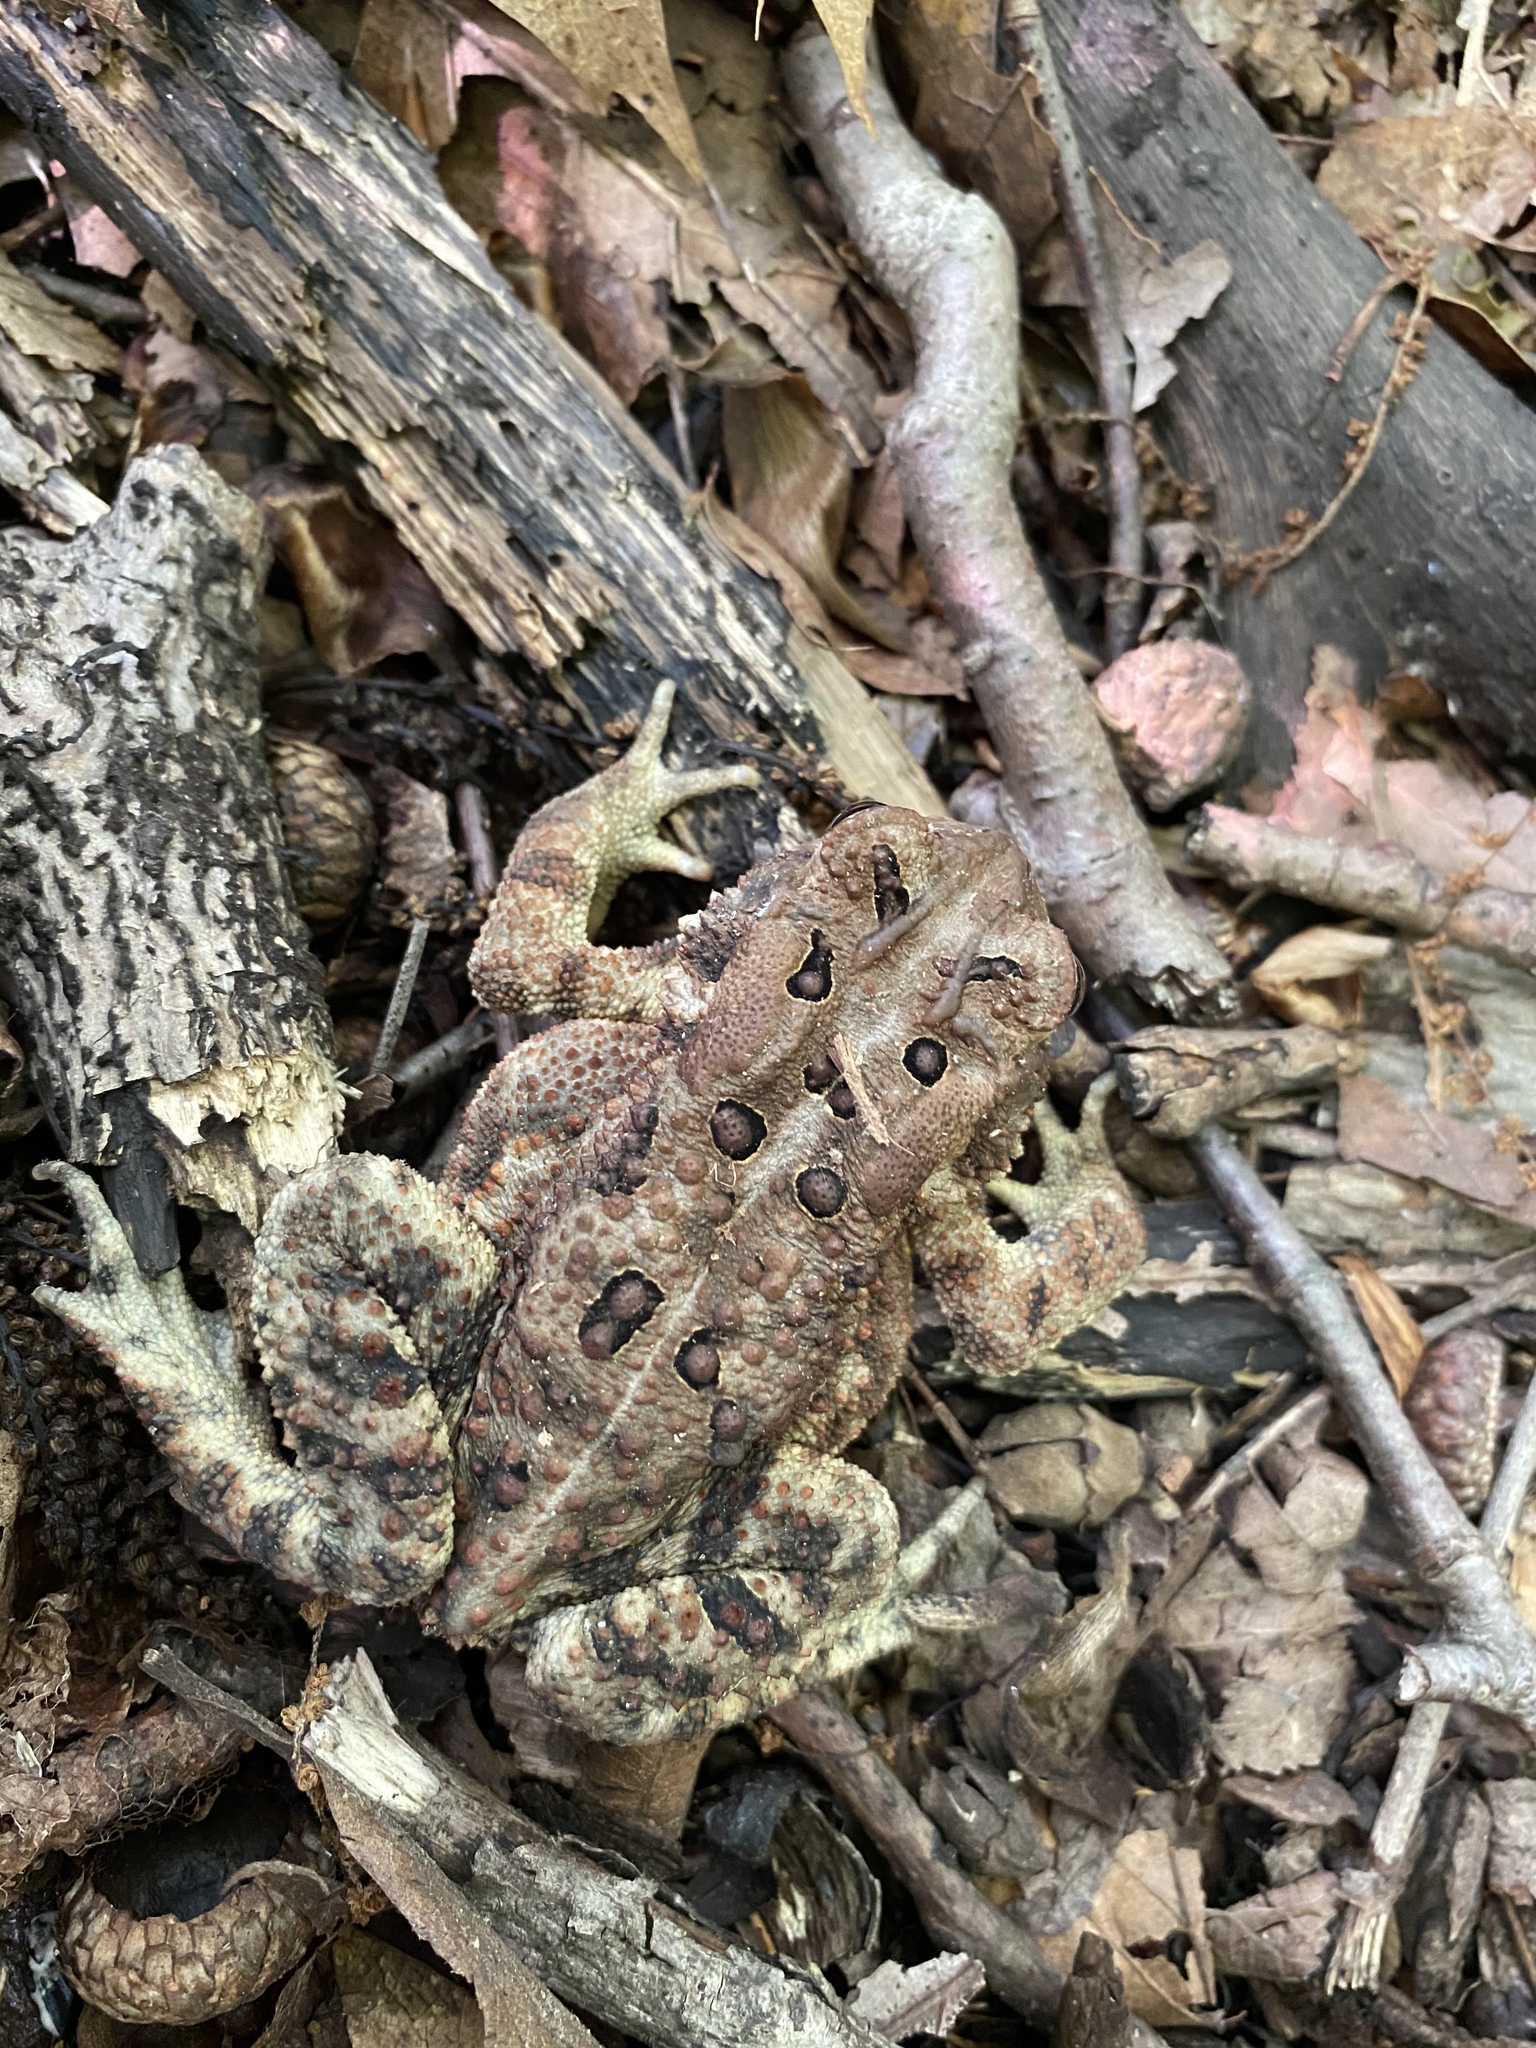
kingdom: Animalia
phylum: Chordata
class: Amphibia
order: Anura
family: Bufonidae
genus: Anaxyrus
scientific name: Anaxyrus americanus
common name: American toad
